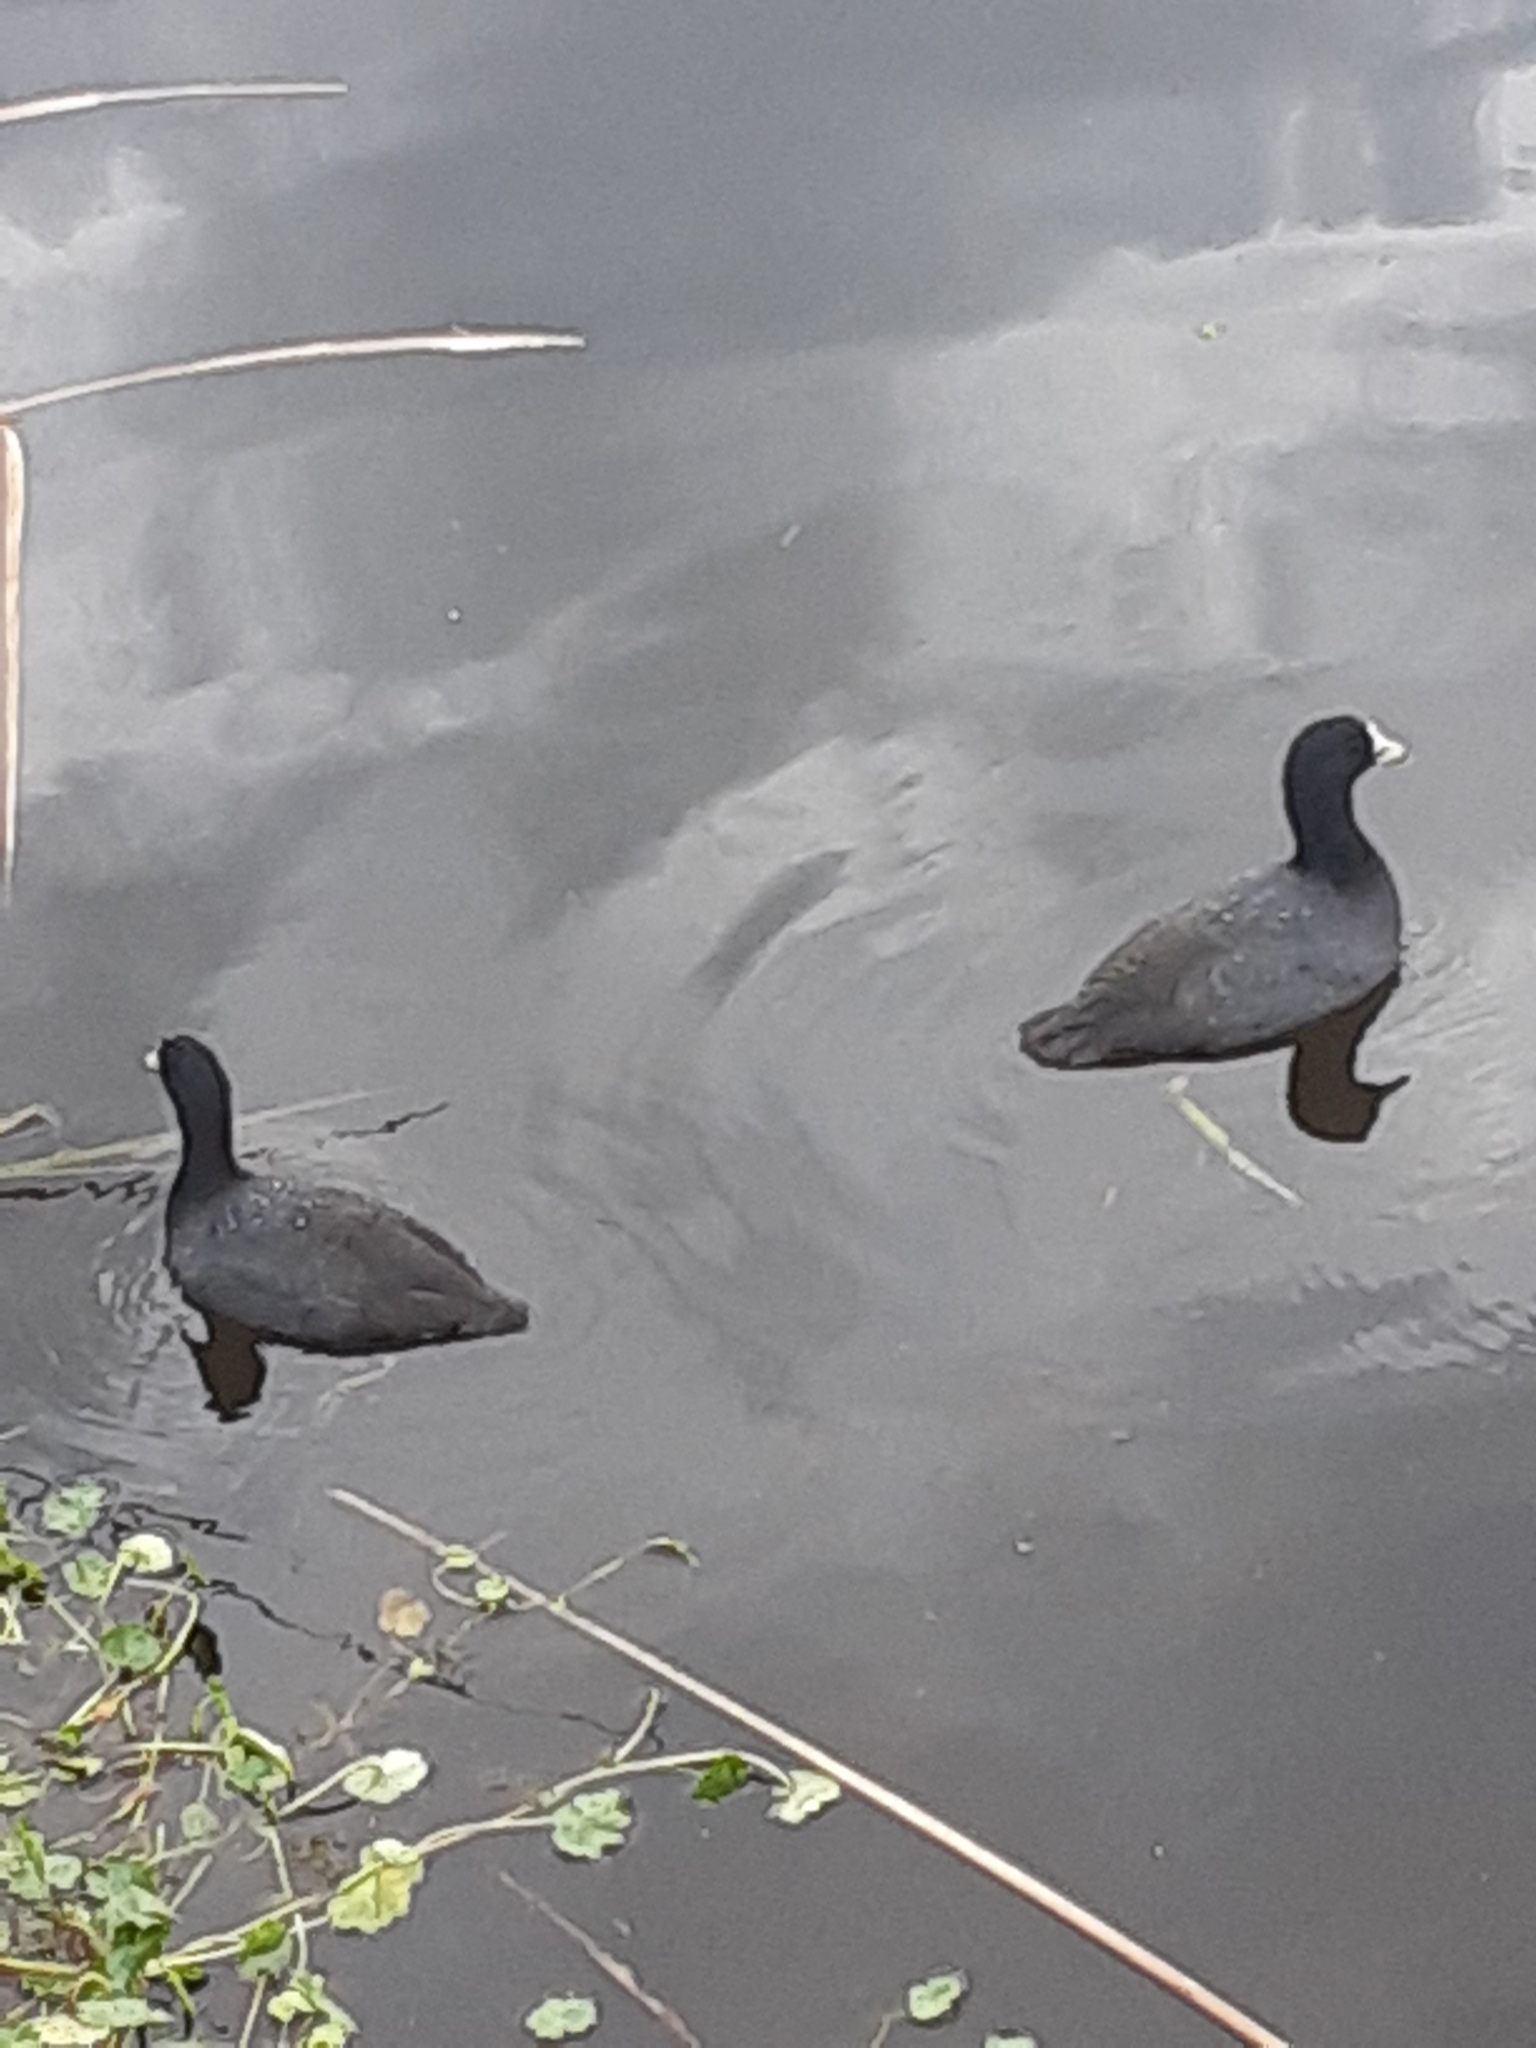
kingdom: Animalia
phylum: Chordata
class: Aves
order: Gruiformes
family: Rallidae
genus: Fulica
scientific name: Fulica americana
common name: American coot
